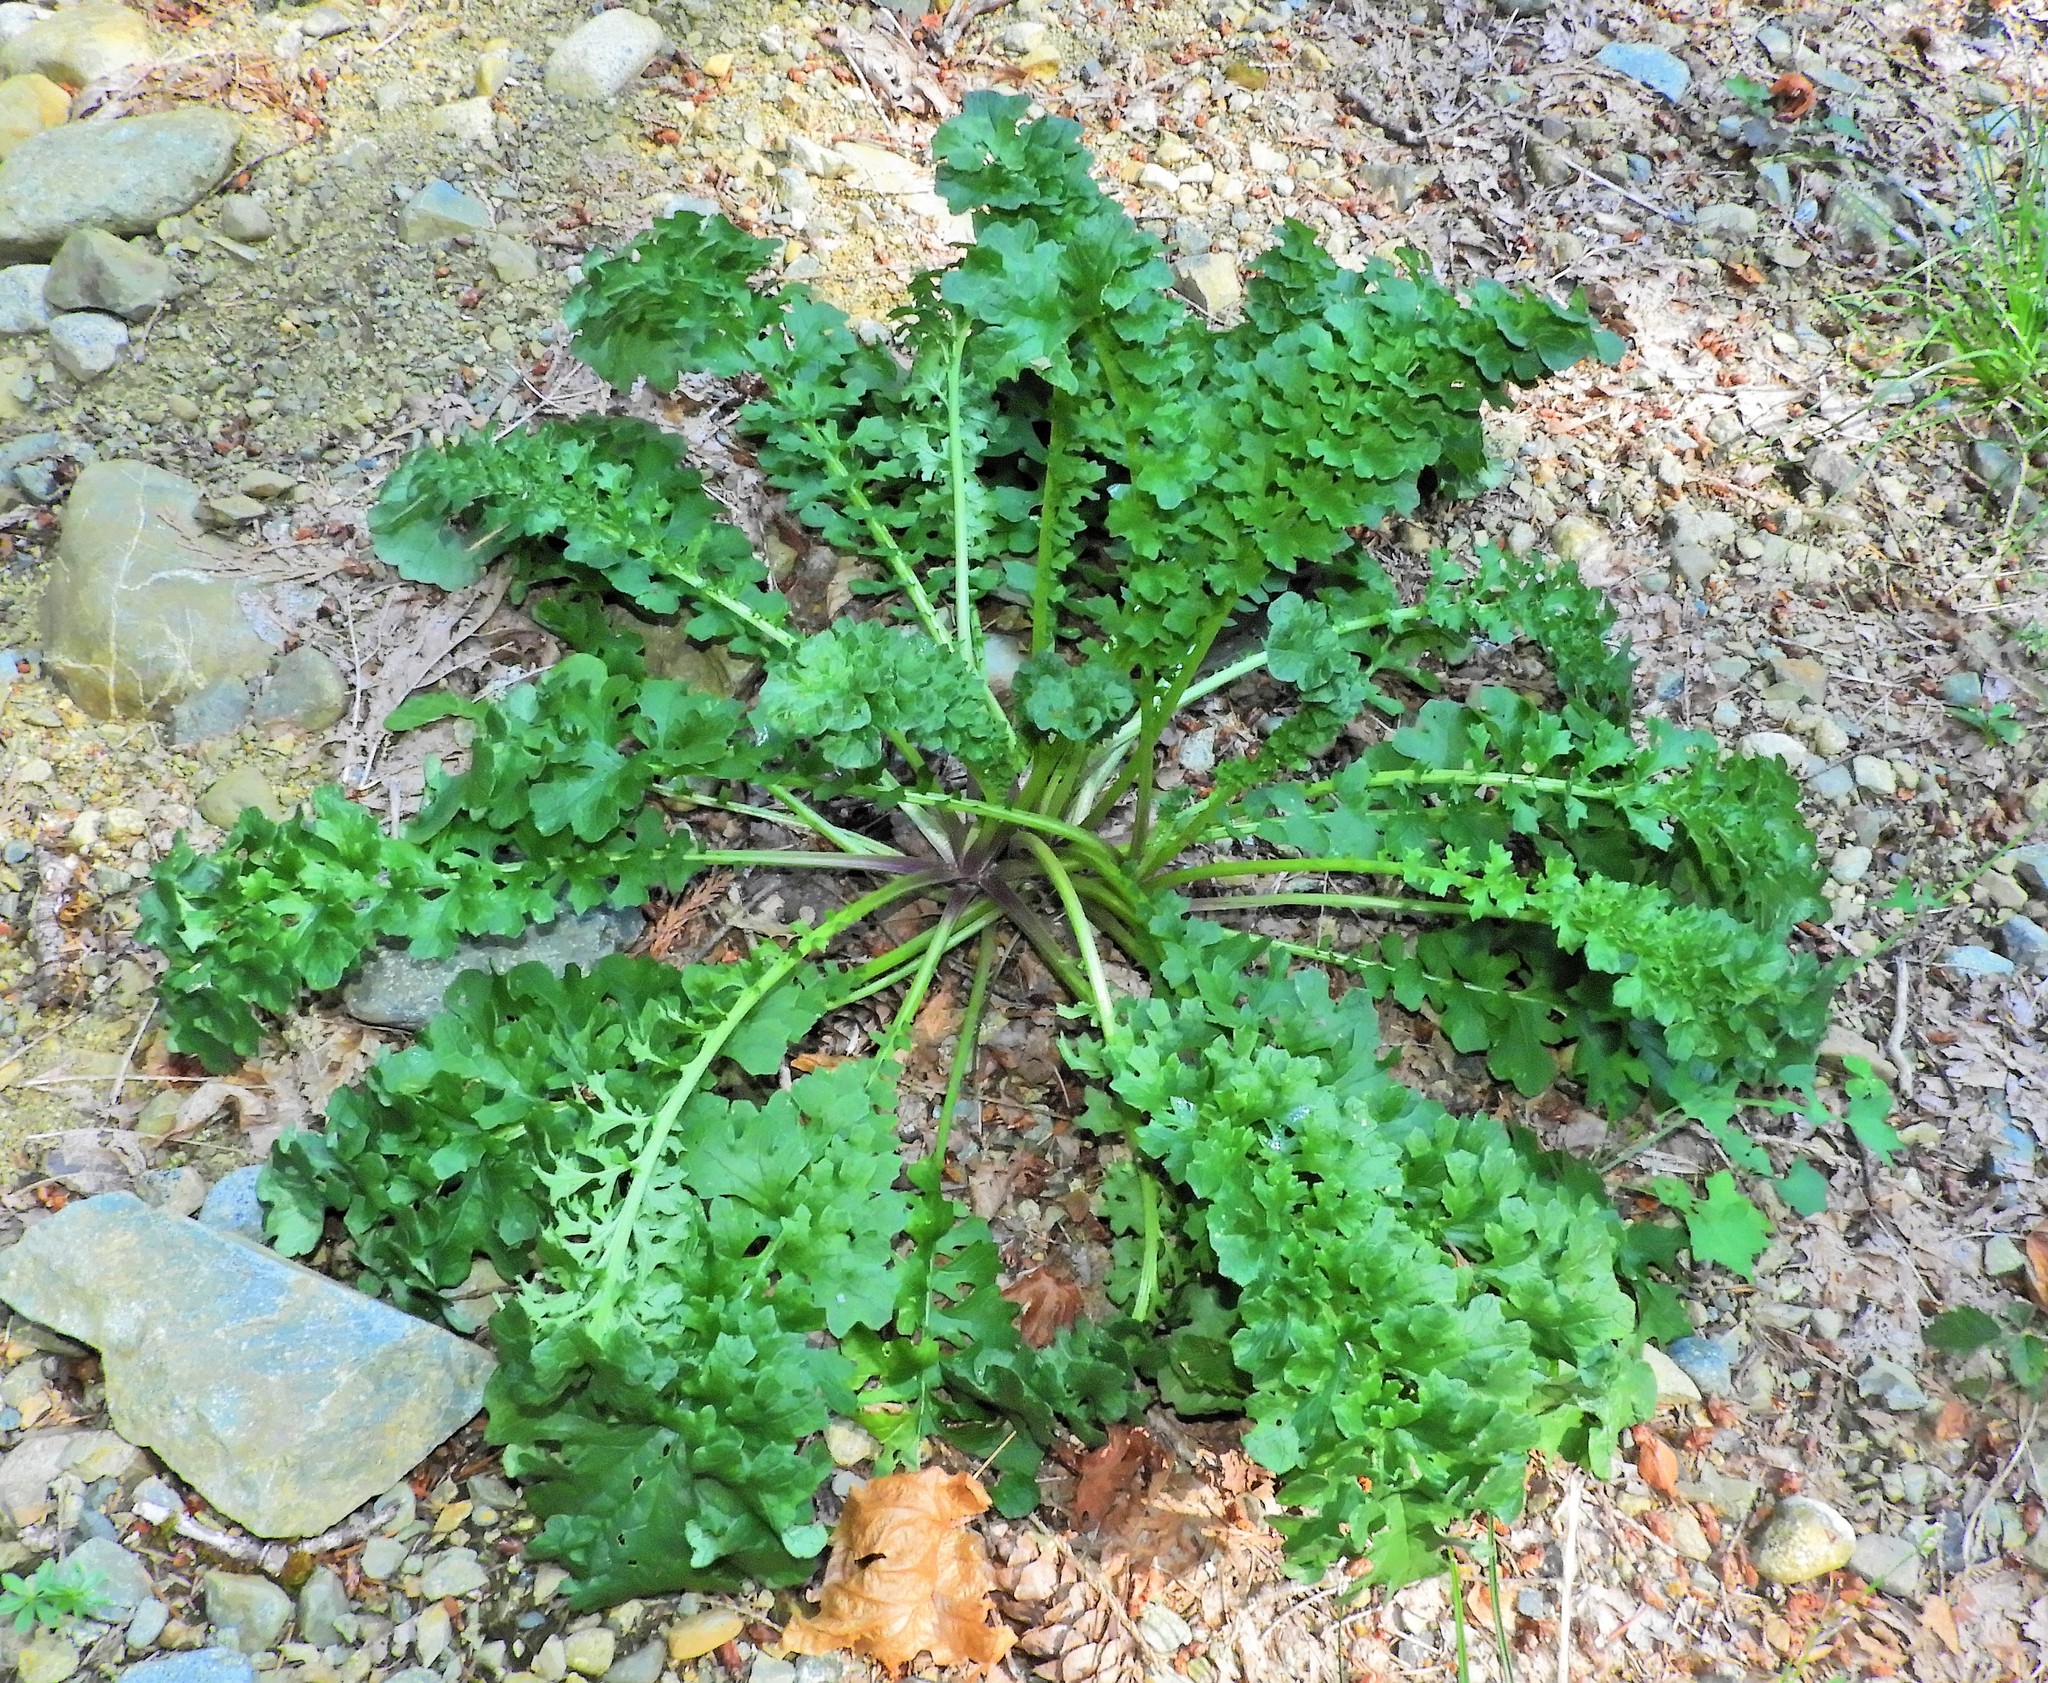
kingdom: Plantae
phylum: Tracheophyta
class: Magnoliopsida
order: Asterales
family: Asteraceae
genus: Jacobaea
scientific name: Jacobaea vulgaris
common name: Stinking willie
